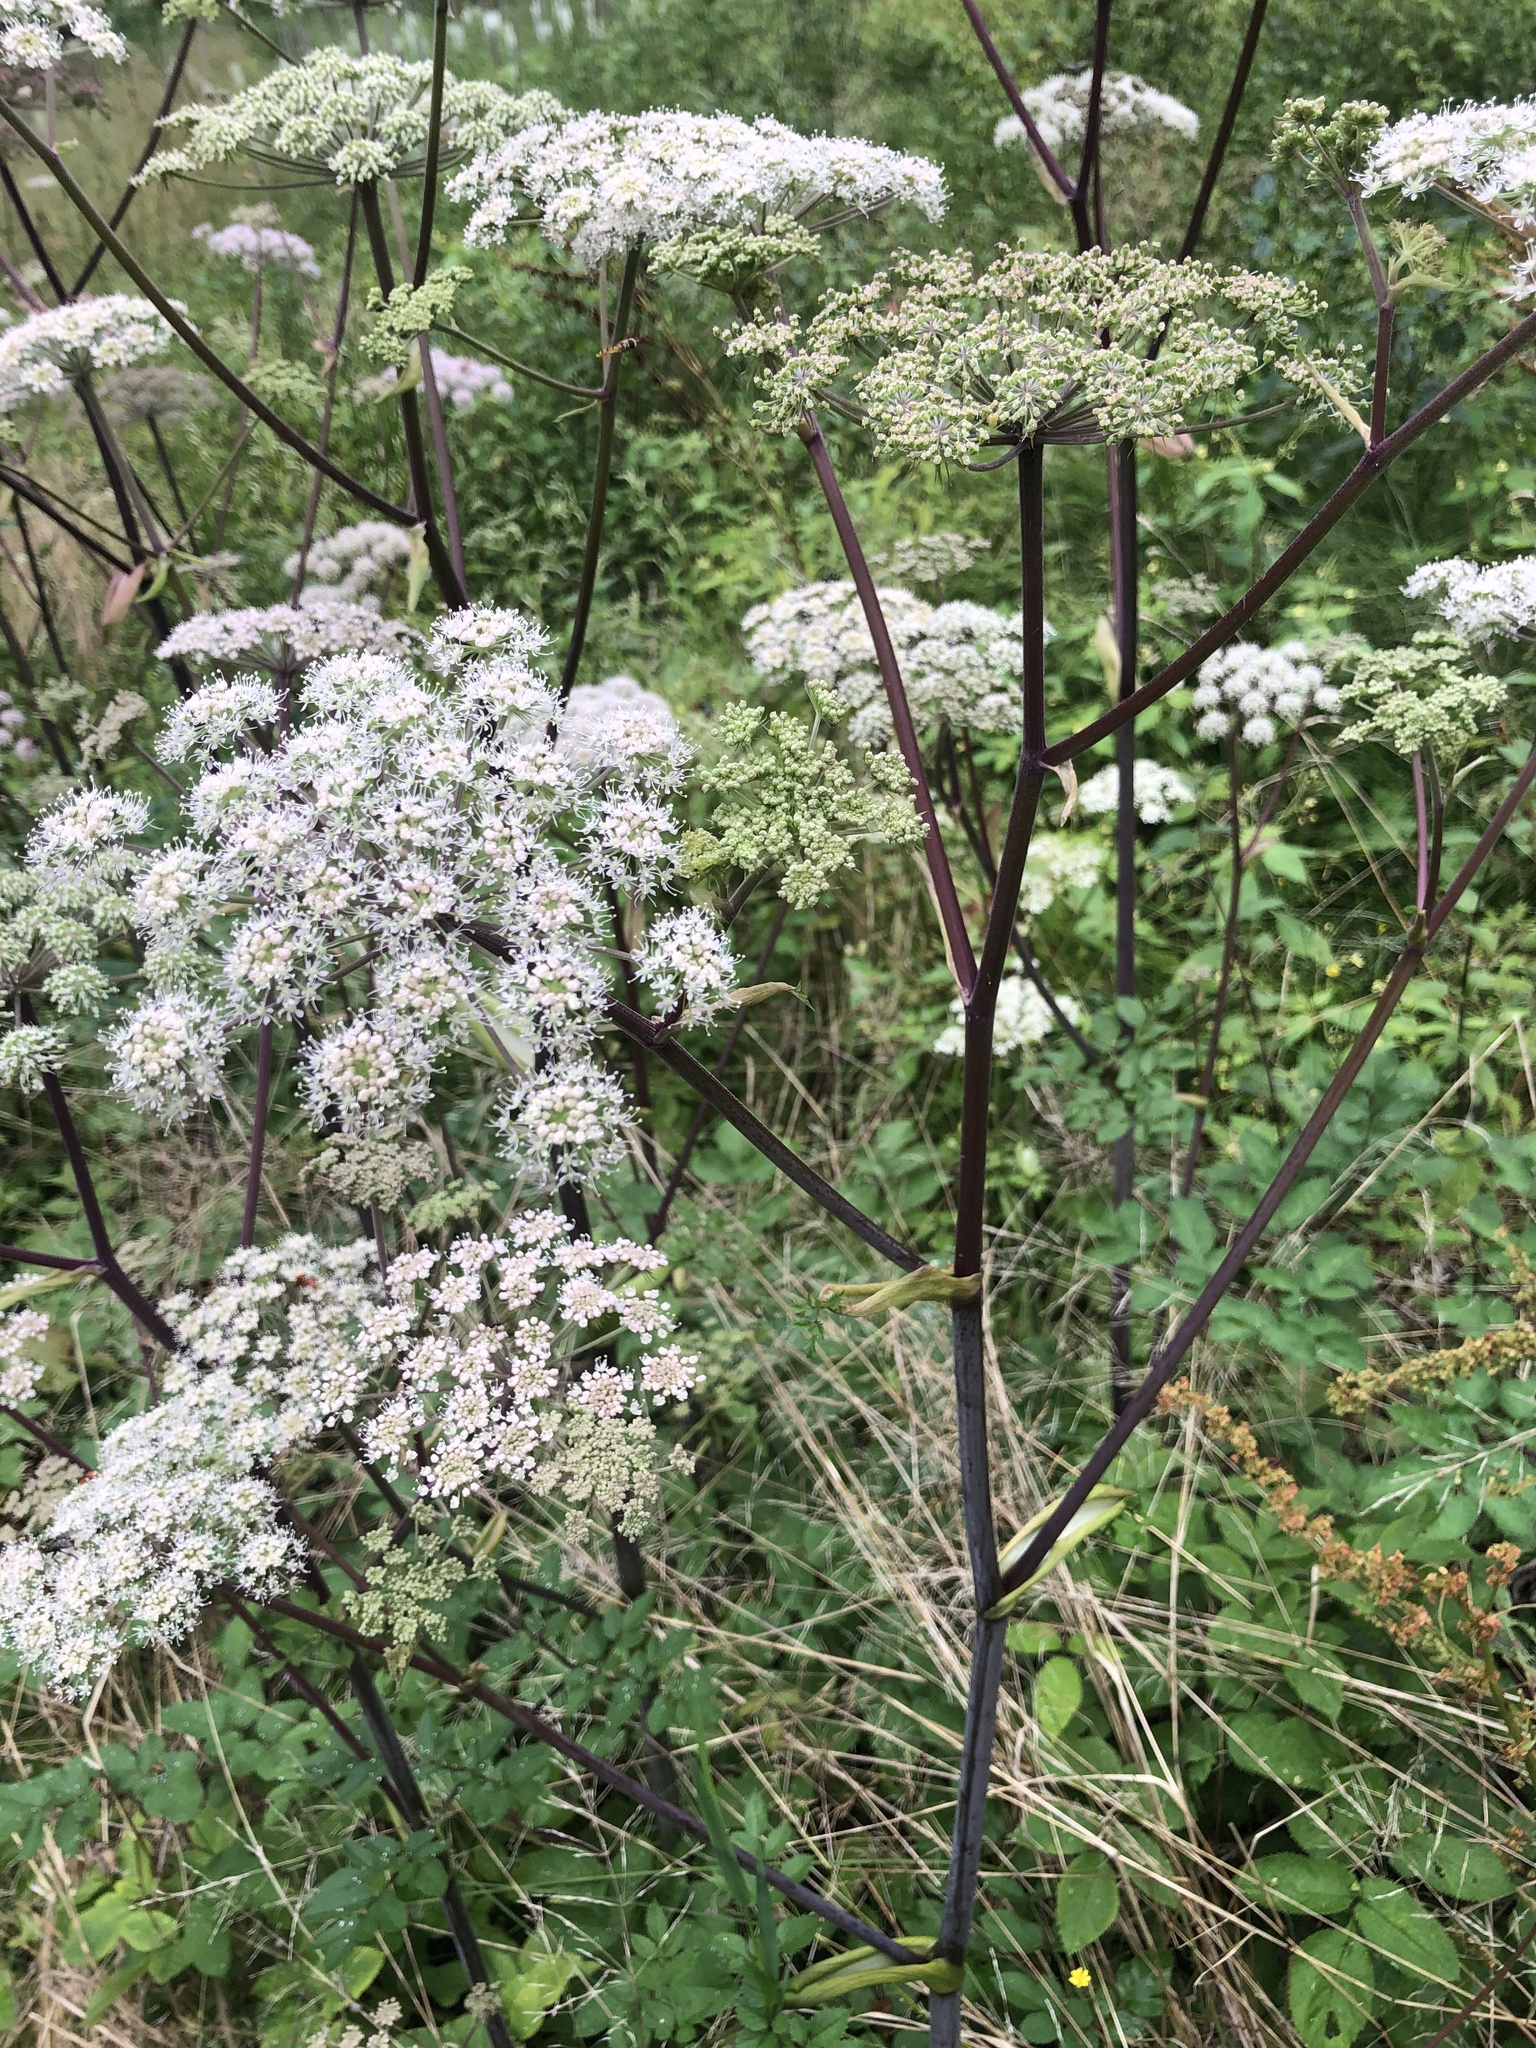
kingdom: Plantae
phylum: Tracheophyta
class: Magnoliopsida
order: Apiales
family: Apiaceae
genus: Angelica
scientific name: Angelica sylvestris
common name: Wild angelica
